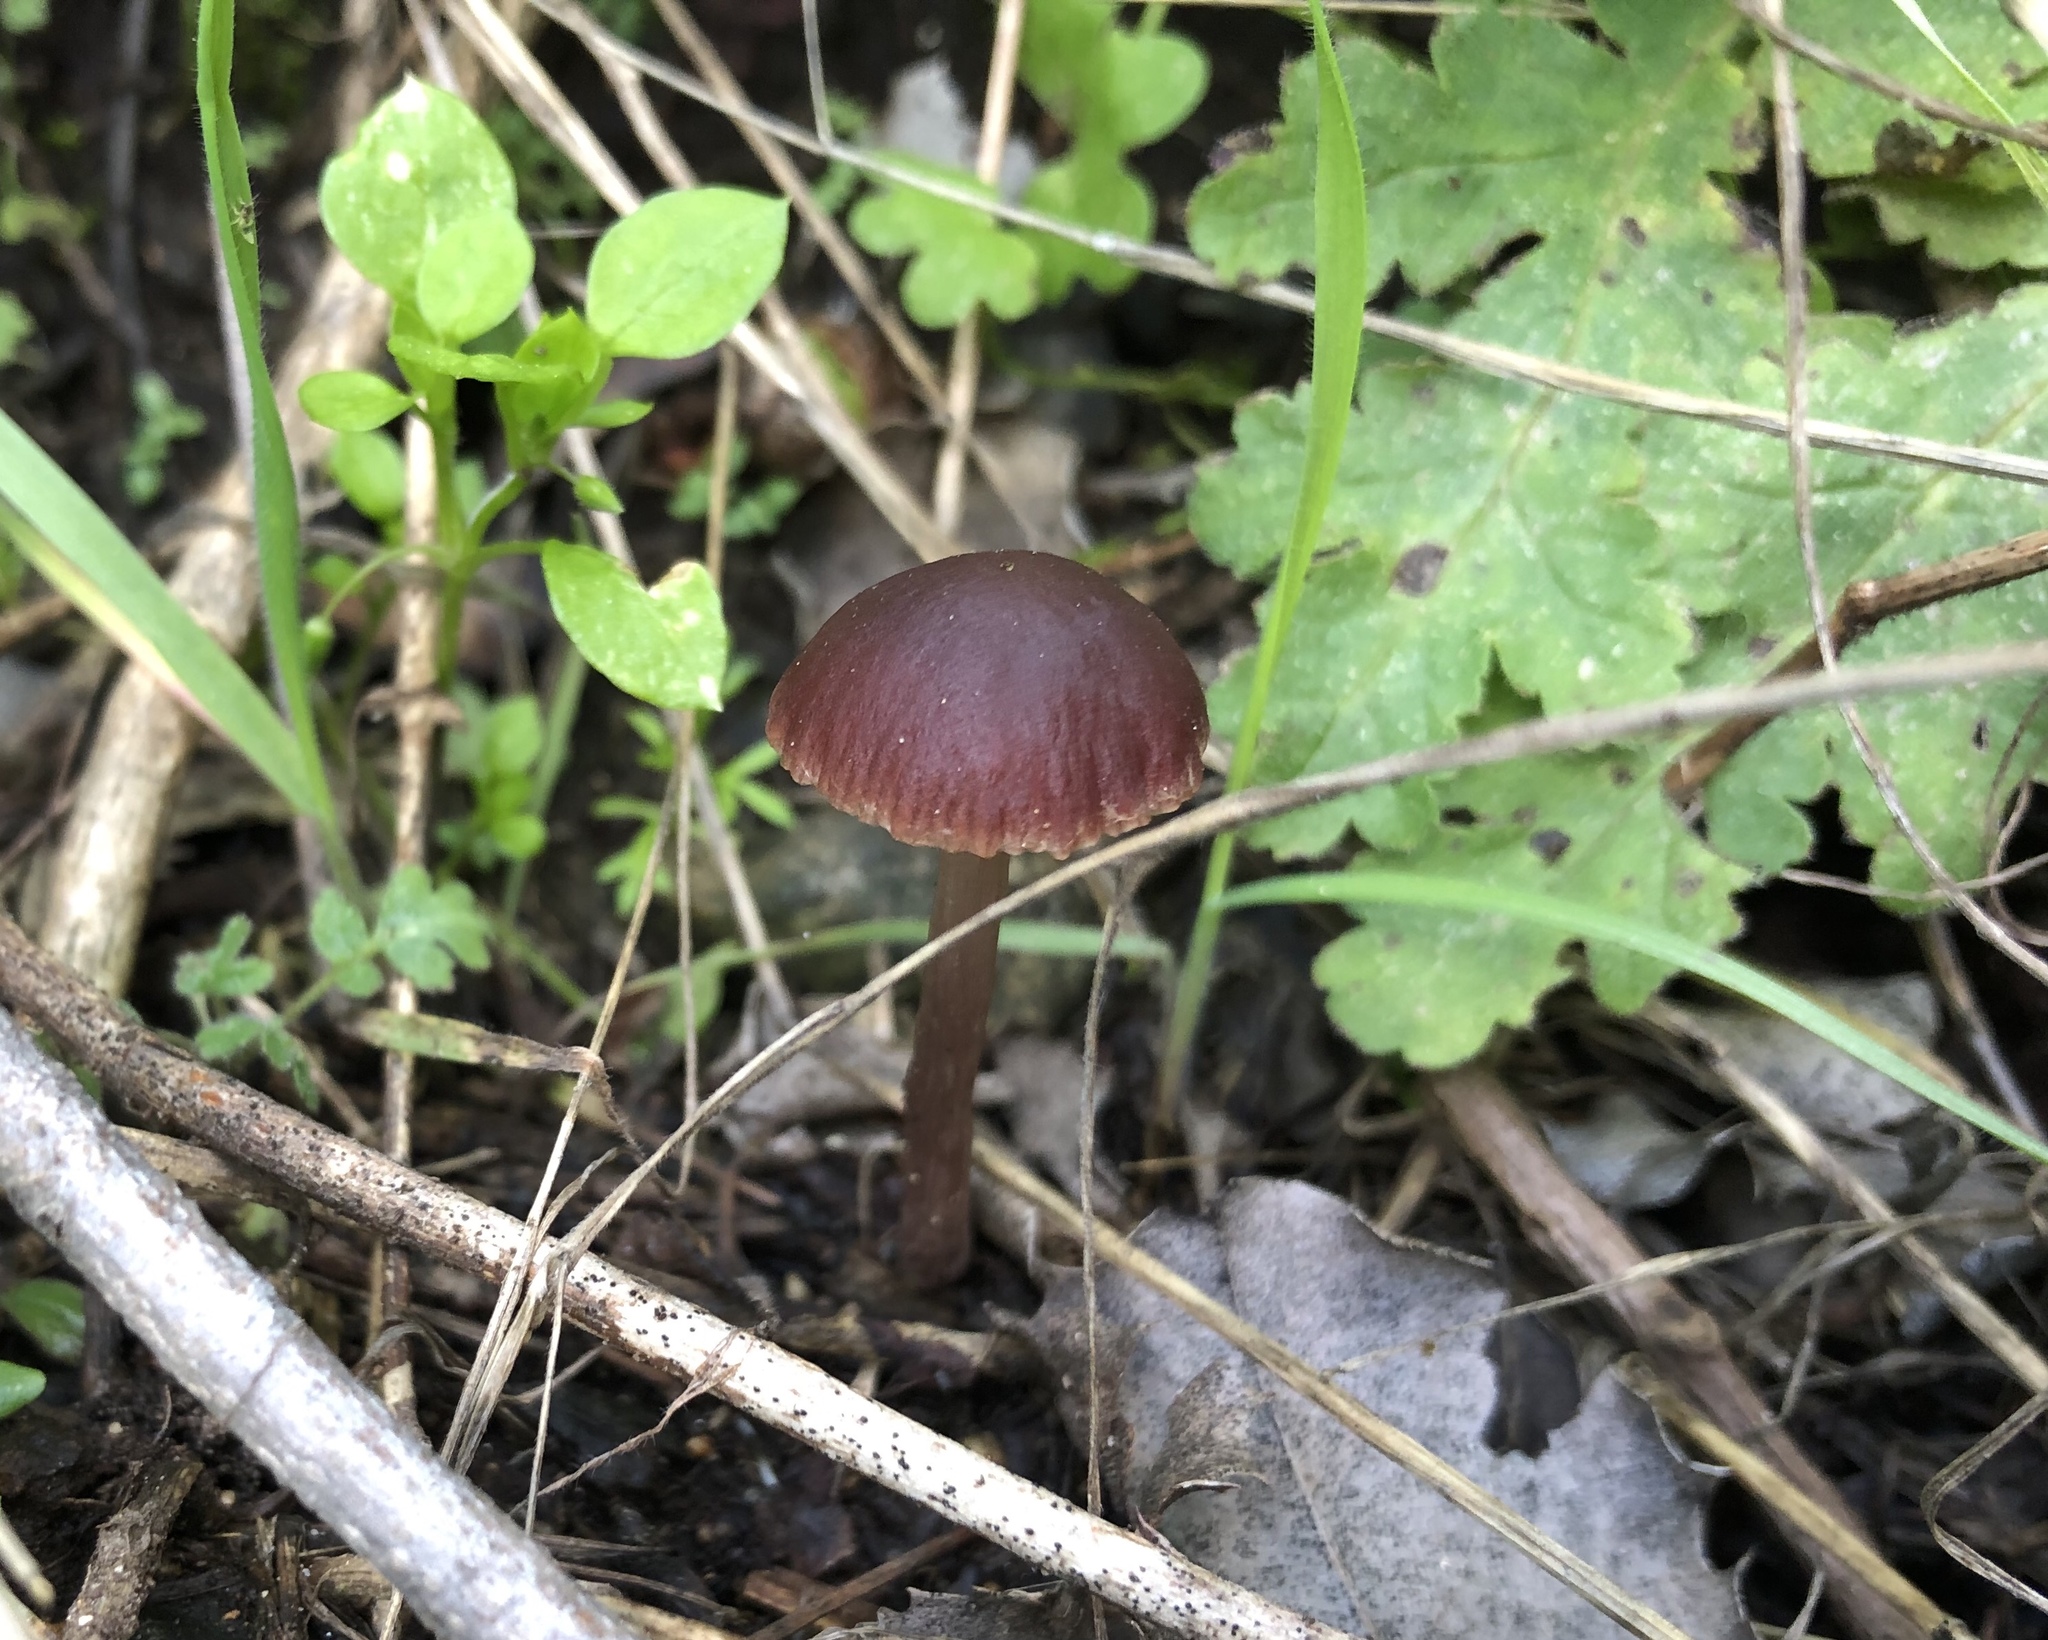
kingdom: Fungi
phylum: Basidiomycota
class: Agaricomycetes
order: Agaricales
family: Psathyrellaceae
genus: Psathyrella
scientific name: Psathyrella bipellis
